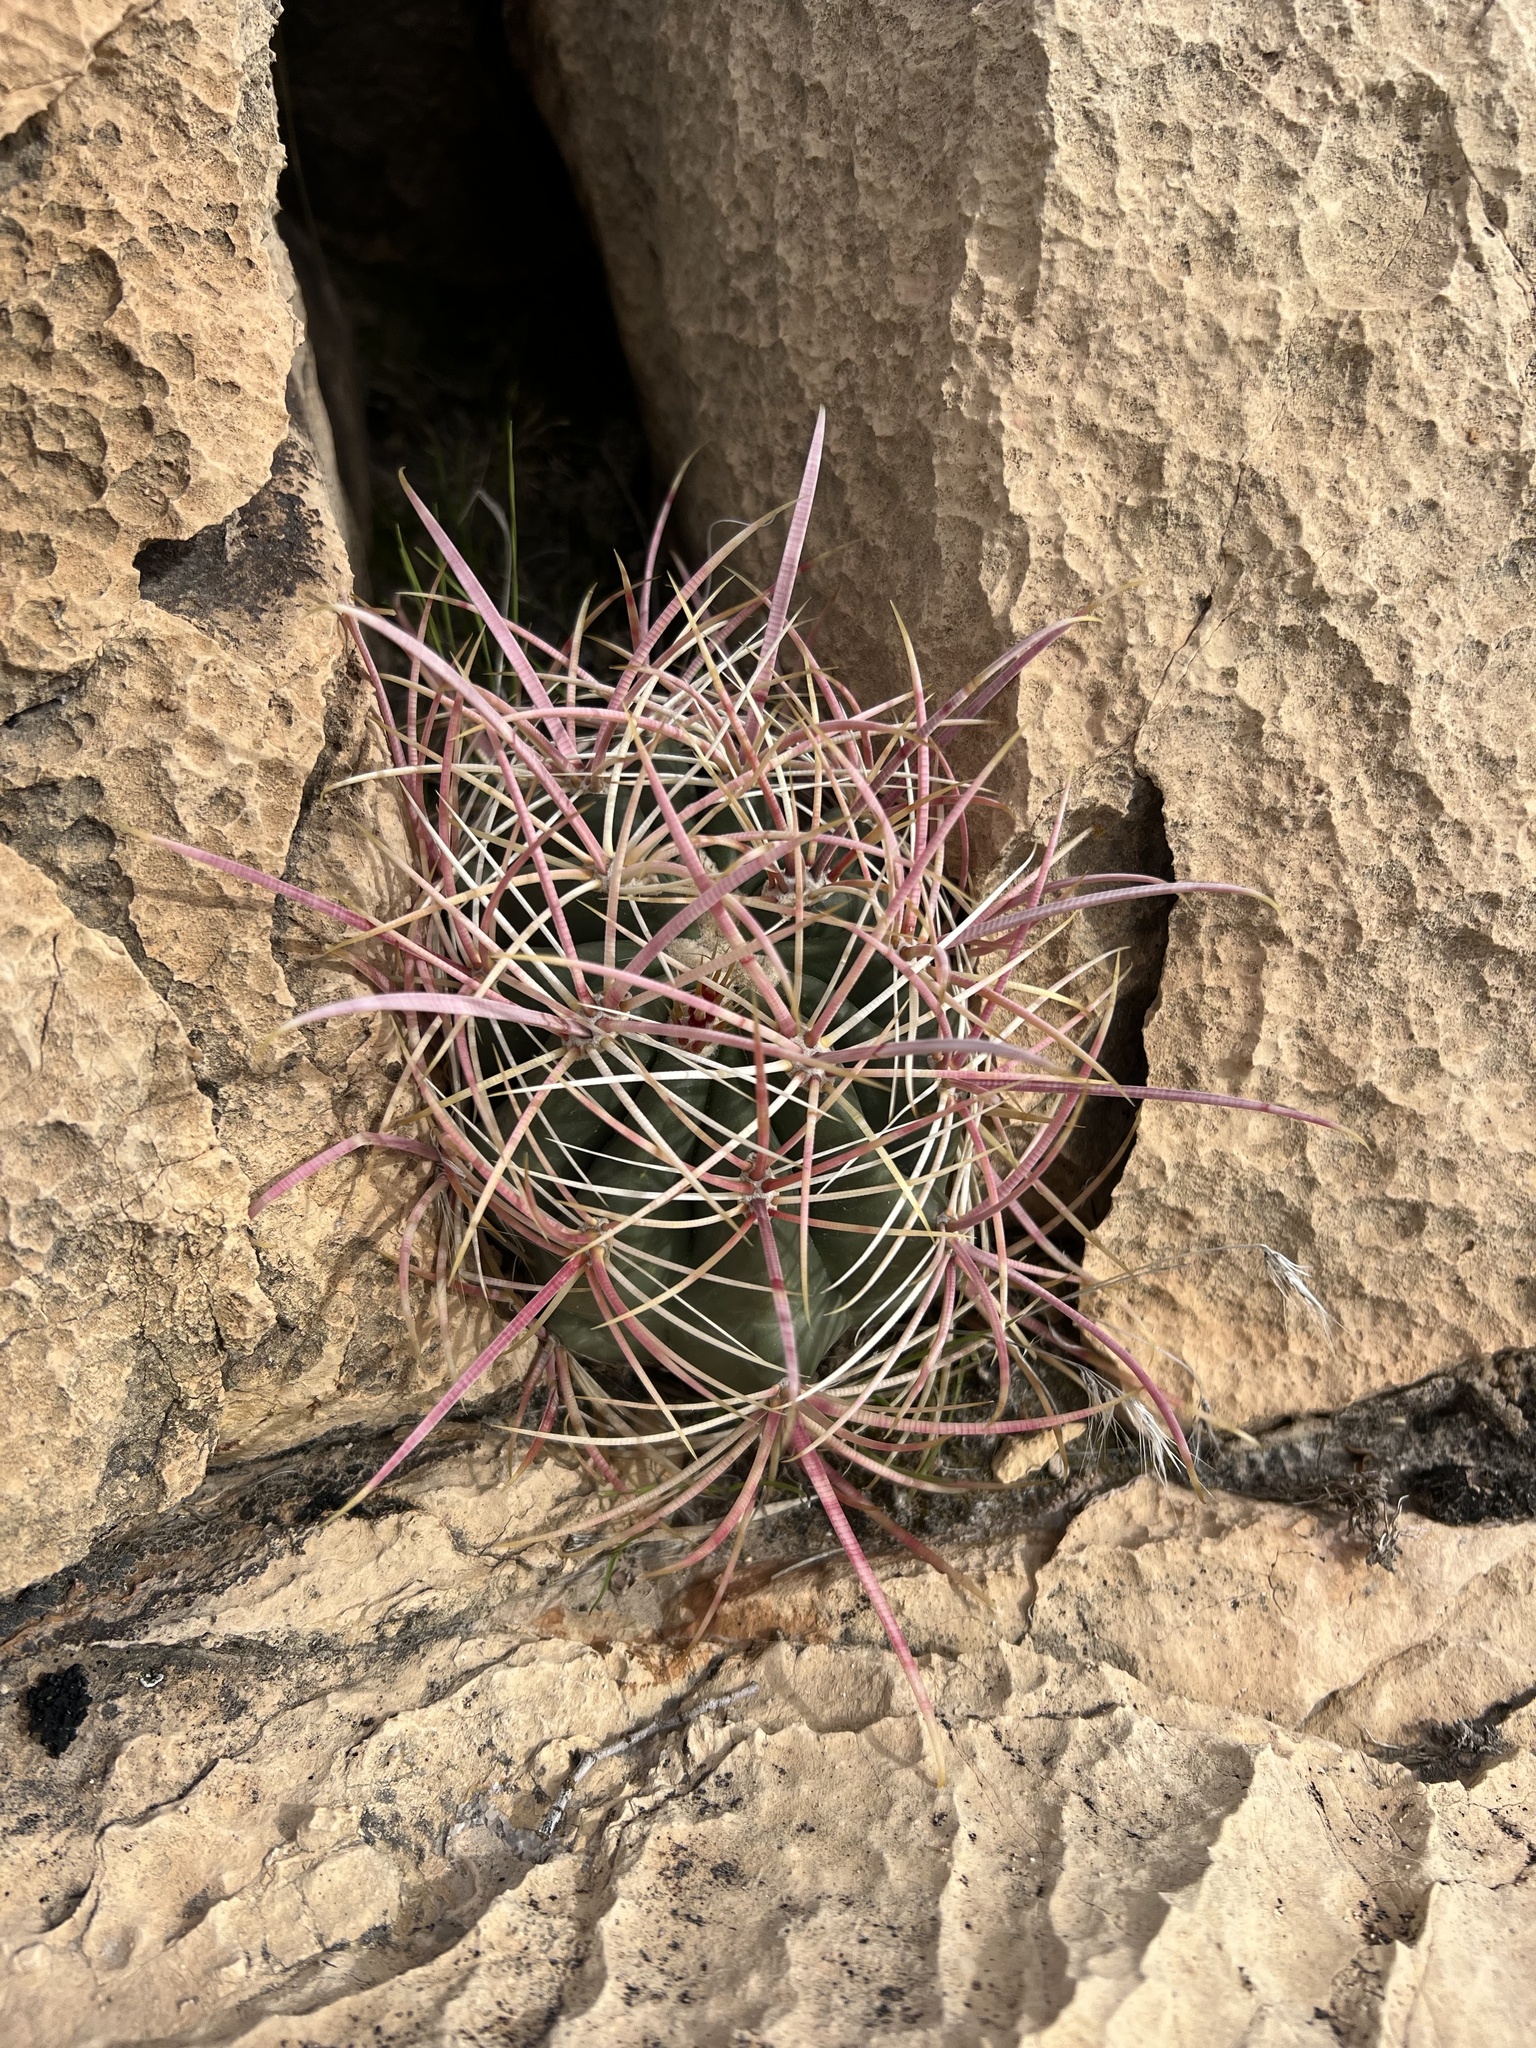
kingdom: Plantae
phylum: Tracheophyta
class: Magnoliopsida
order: Caryophyllales
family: Cactaceae
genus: Ferocactus
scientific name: Ferocactus cylindraceus
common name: California barrel cactus
